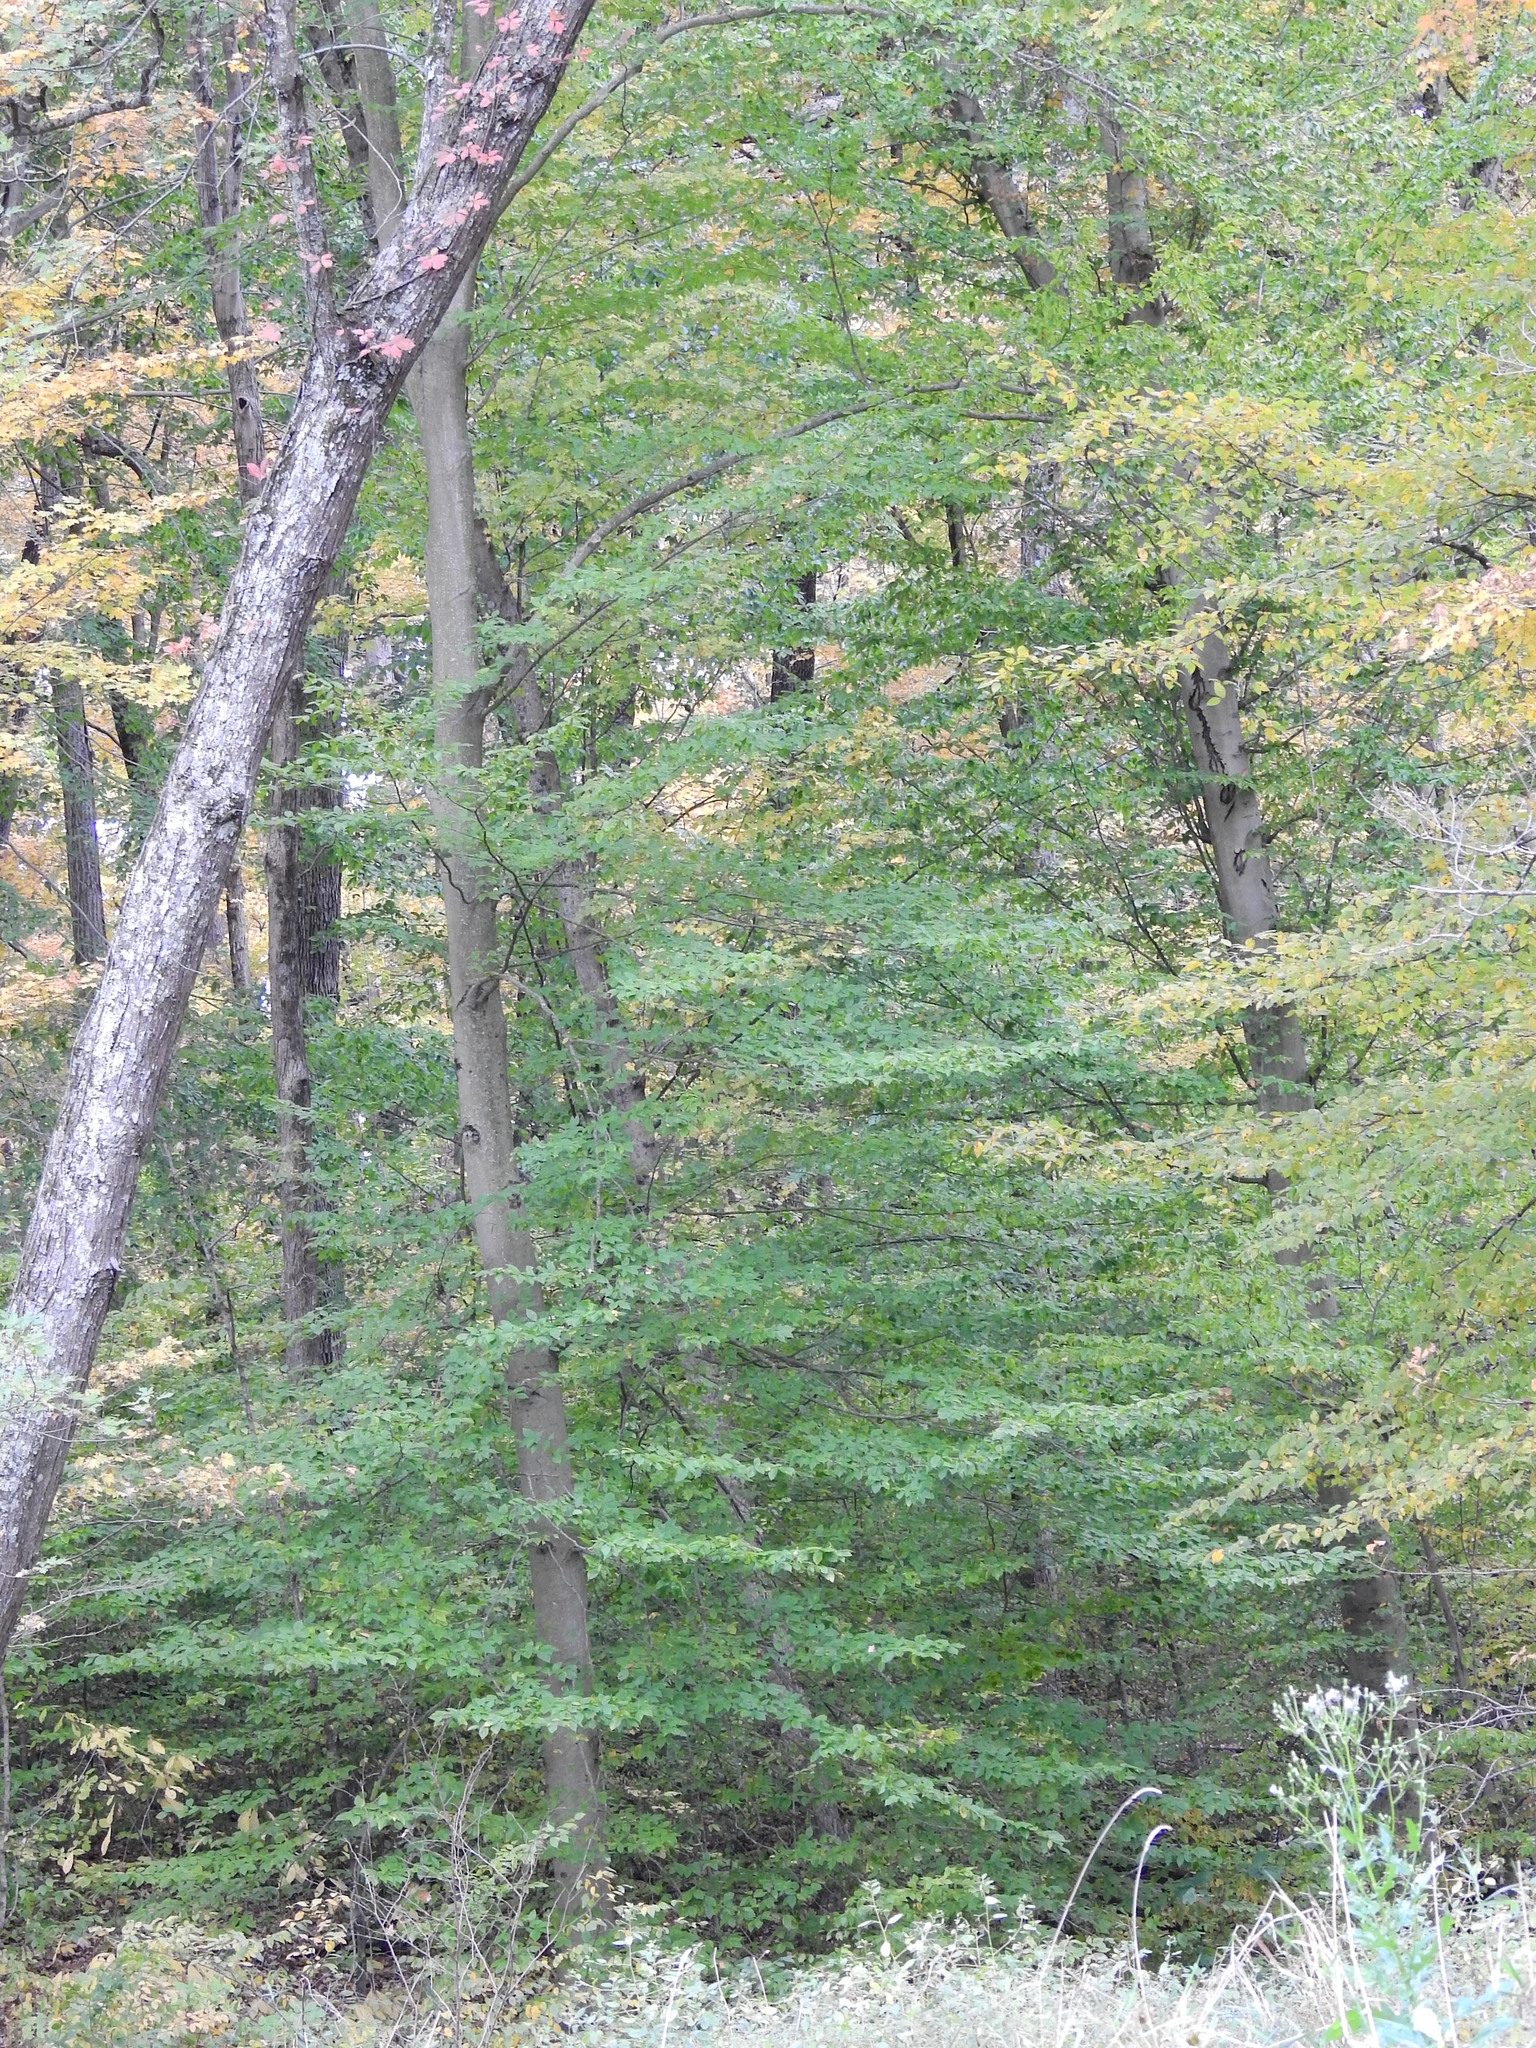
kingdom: Plantae
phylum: Tracheophyta
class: Magnoliopsida
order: Fagales
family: Fagaceae
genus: Fagus
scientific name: Fagus grandifolia
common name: American beech
